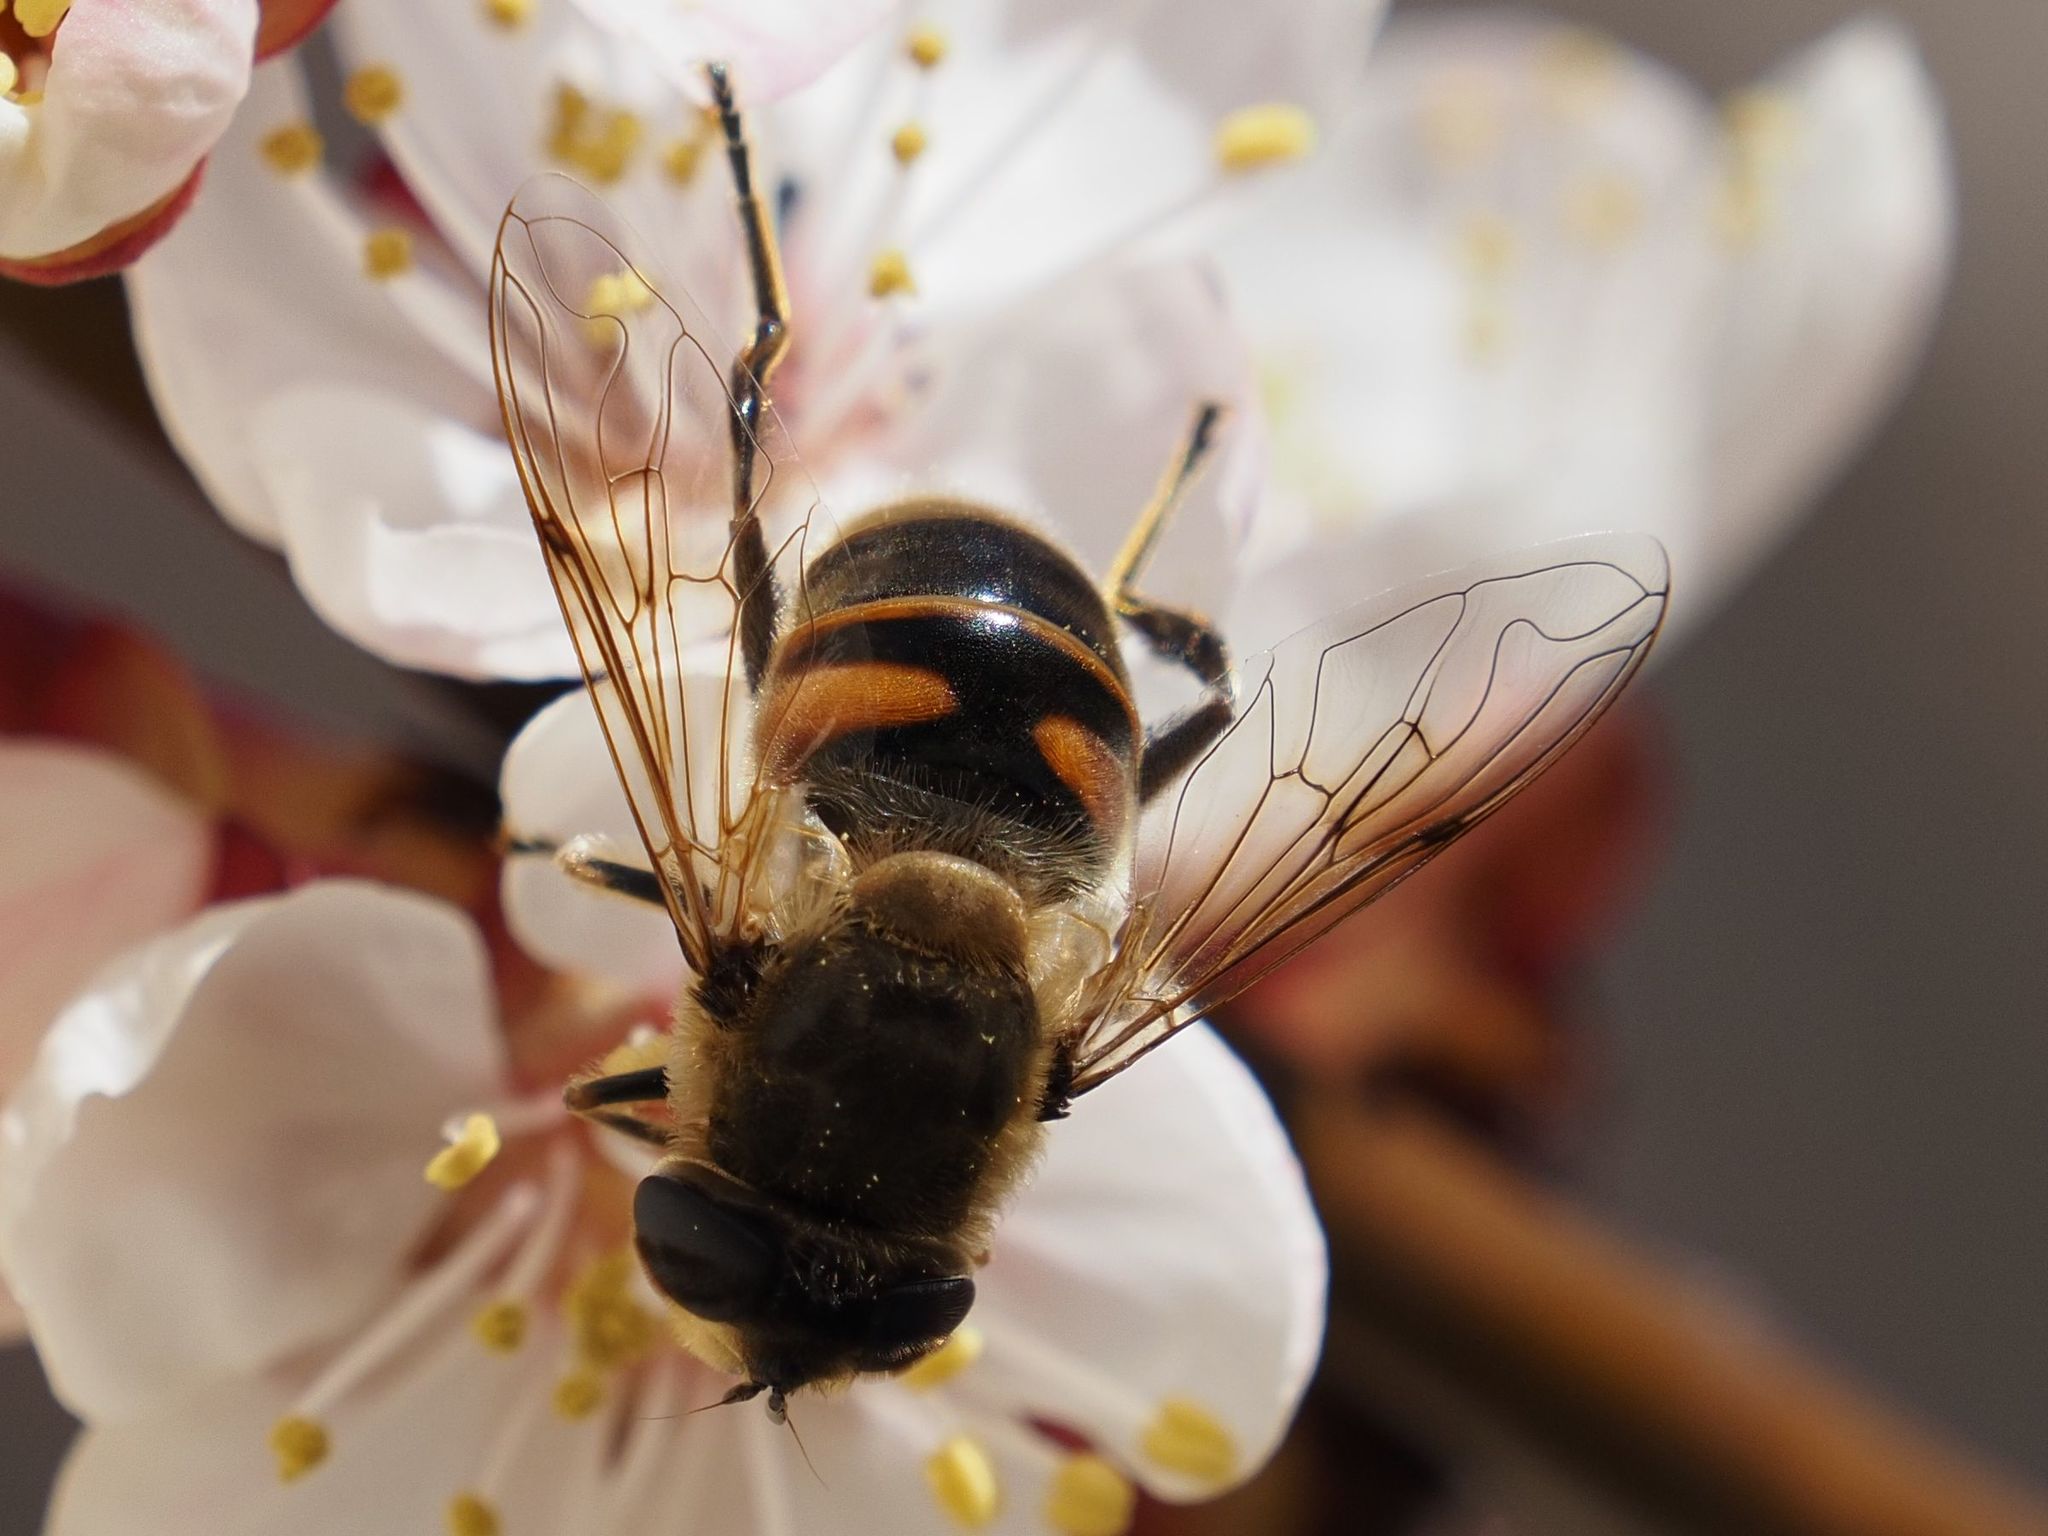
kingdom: Animalia
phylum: Arthropoda
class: Insecta
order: Diptera
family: Syrphidae
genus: Eristalis
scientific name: Eristalis tenax
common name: Drone fly
